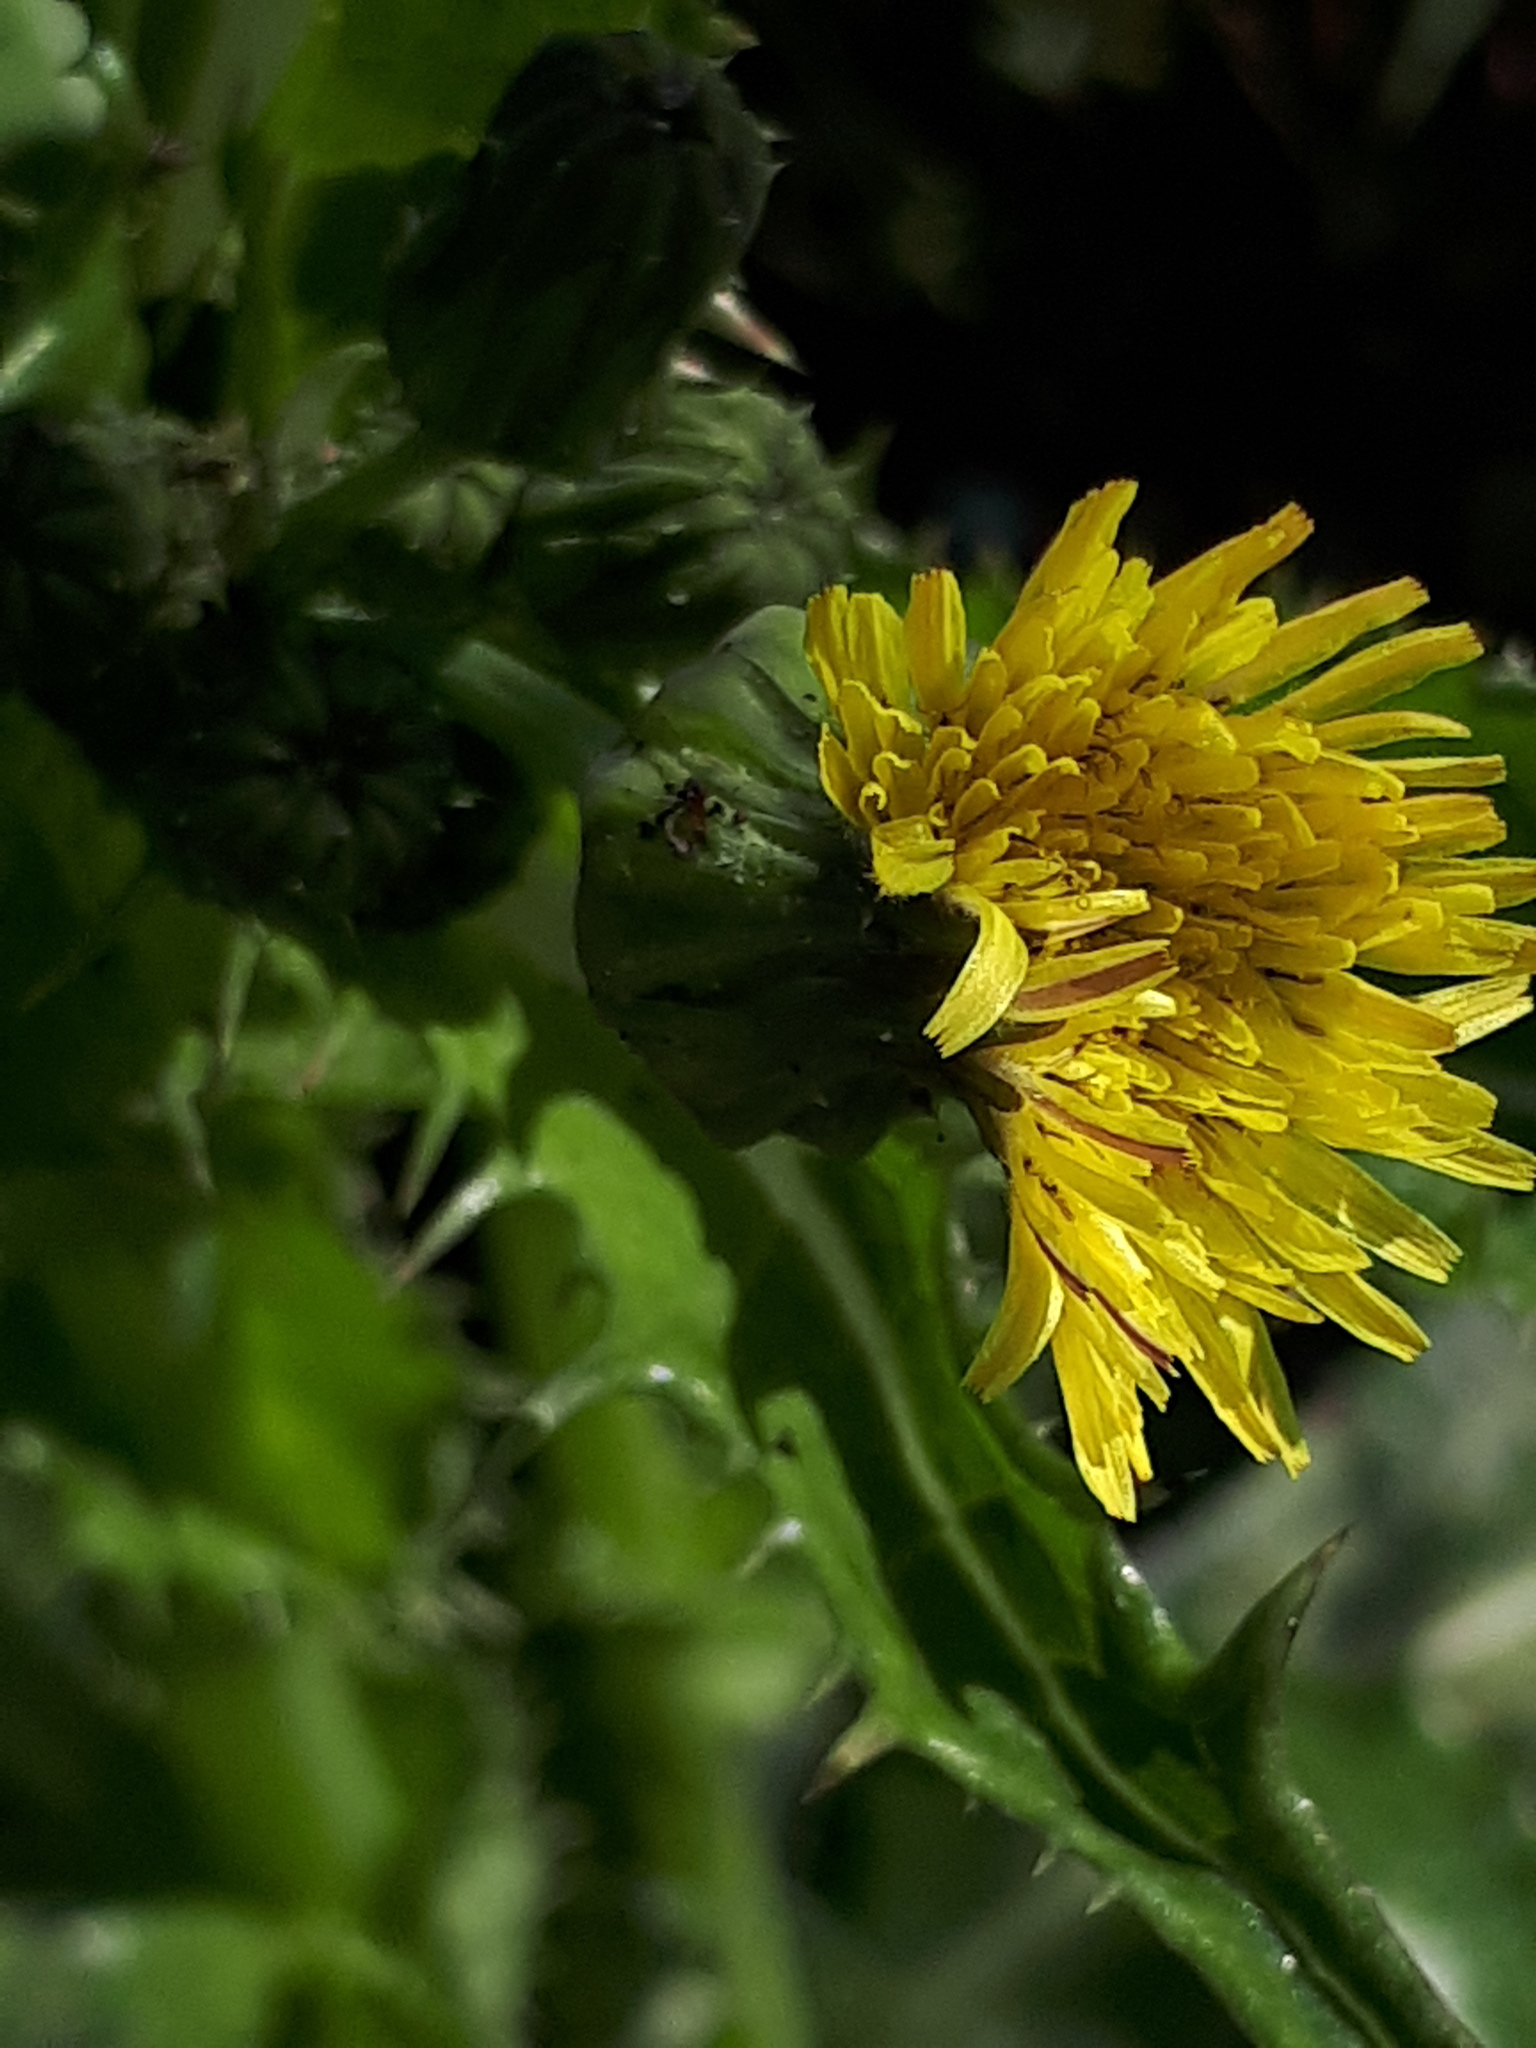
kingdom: Plantae
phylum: Tracheophyta
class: Magnoliopsida
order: Asterales
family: Asteraceae
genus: Sonchus
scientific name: Sonchus asper
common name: Prickly sow-thistle
